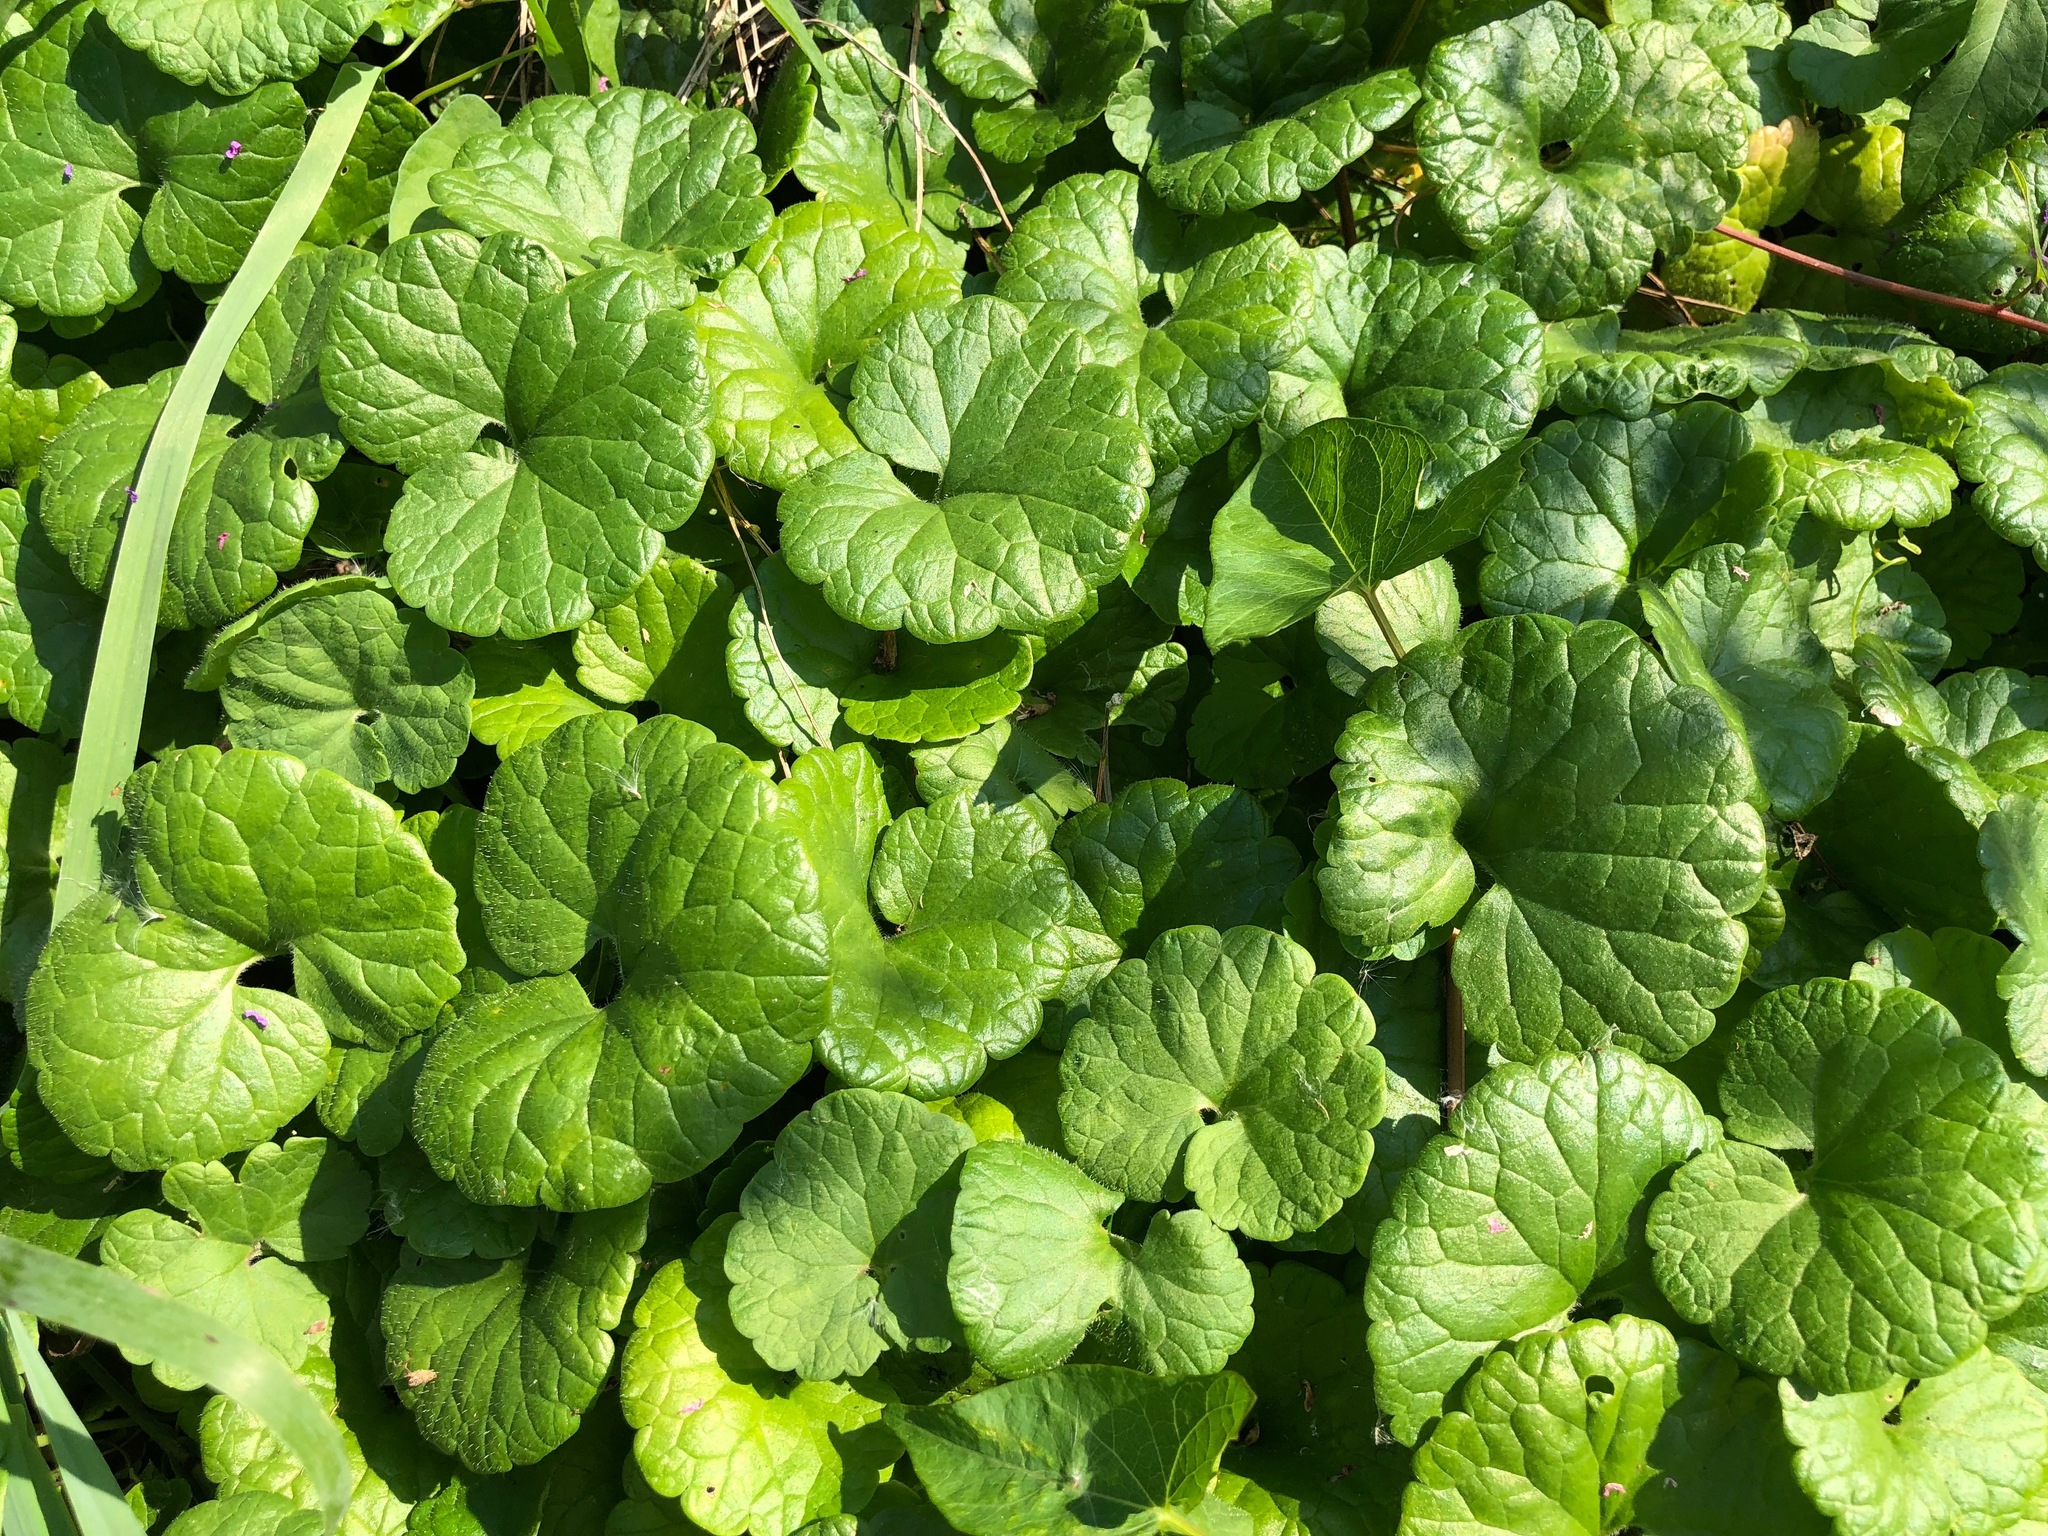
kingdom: Plantae
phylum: Tracheophyta
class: Magnoliopsida
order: Lamiales
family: Lamiaceae
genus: Glechoma
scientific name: Glechoma hederacea
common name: Ground ivy
